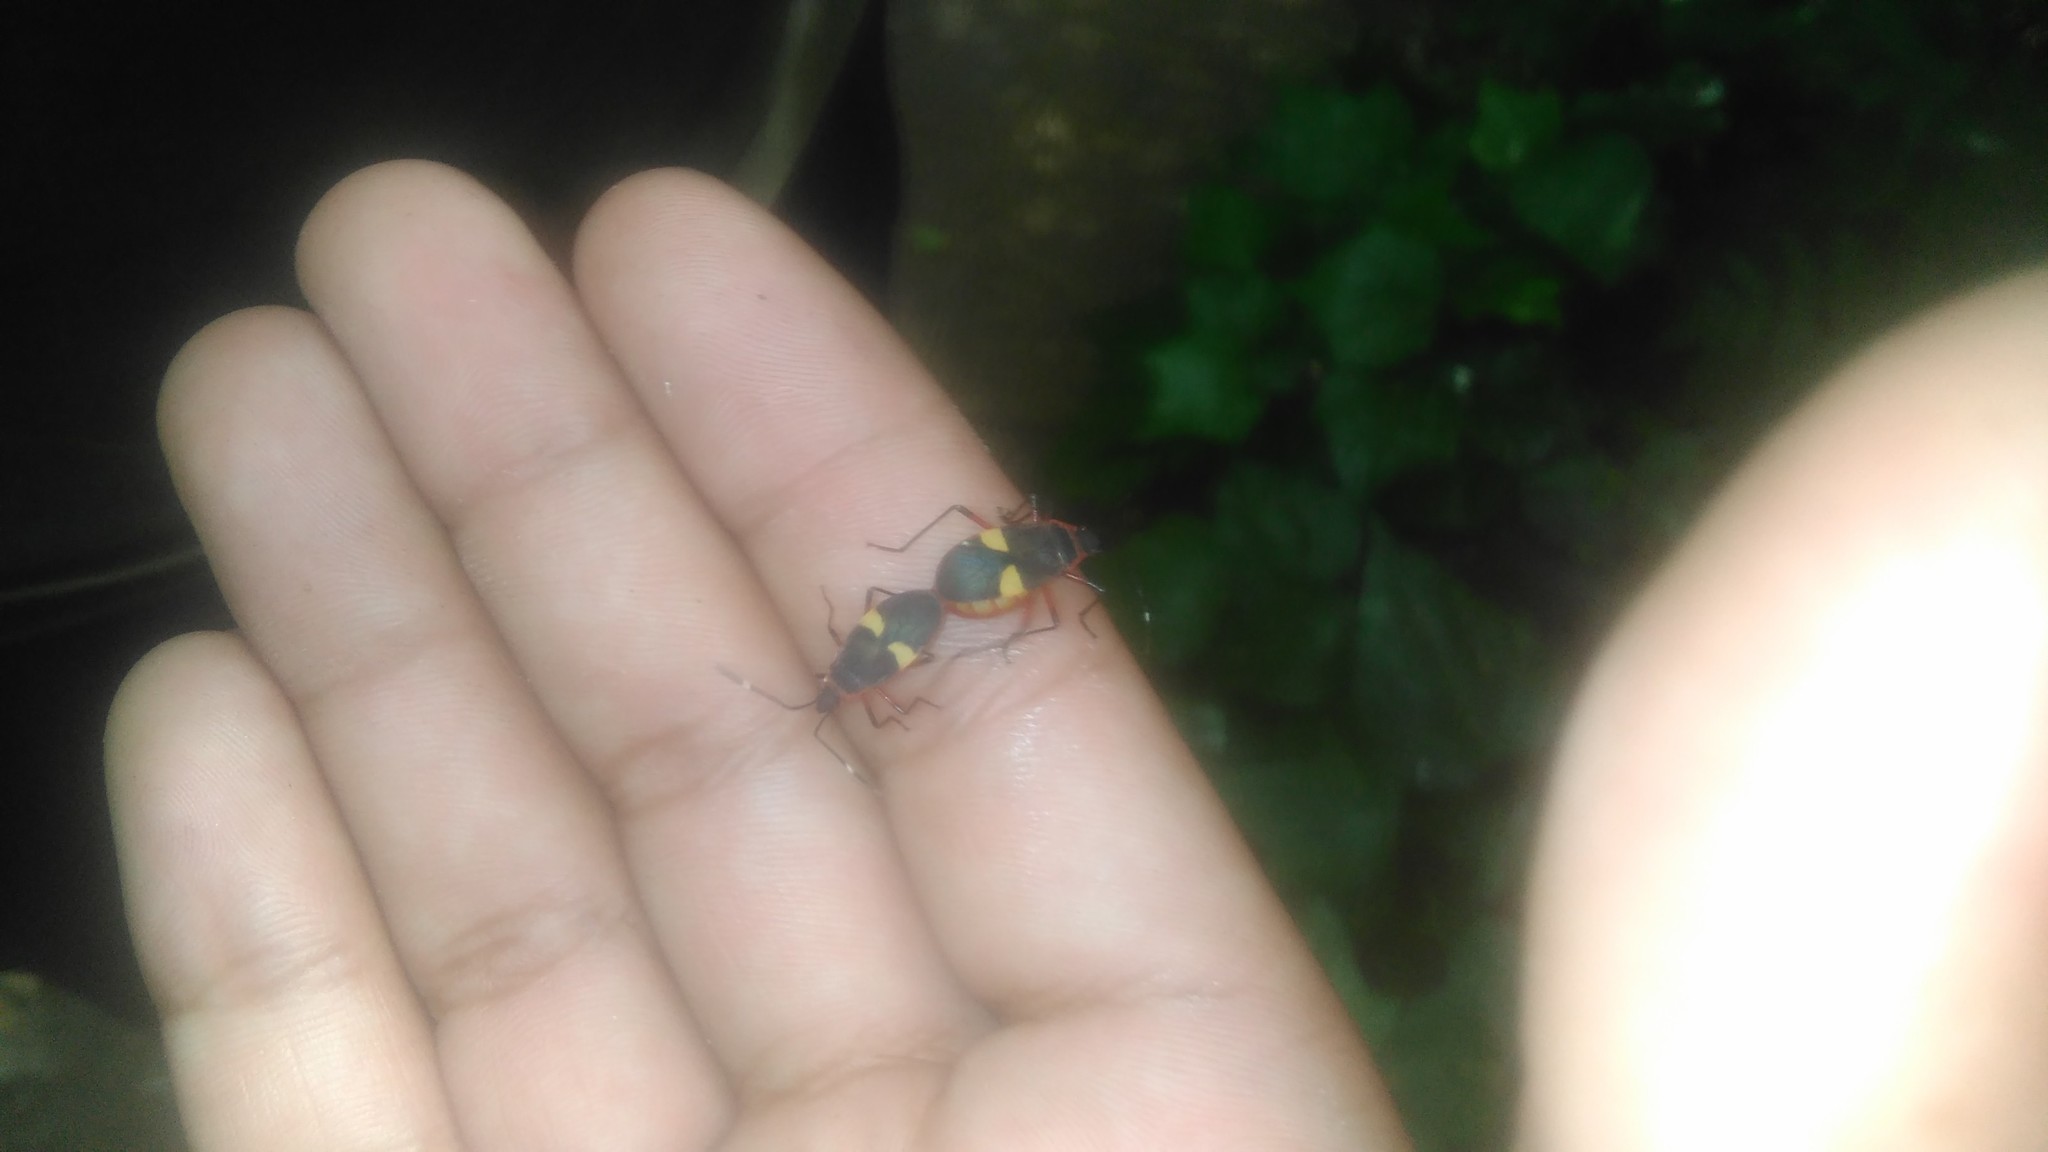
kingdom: Animalia
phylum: Arthropoda
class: Insecta
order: Hemiptera
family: Pyrrhocoridae
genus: Dysdercus
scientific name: Dysdercus albofasciatus
